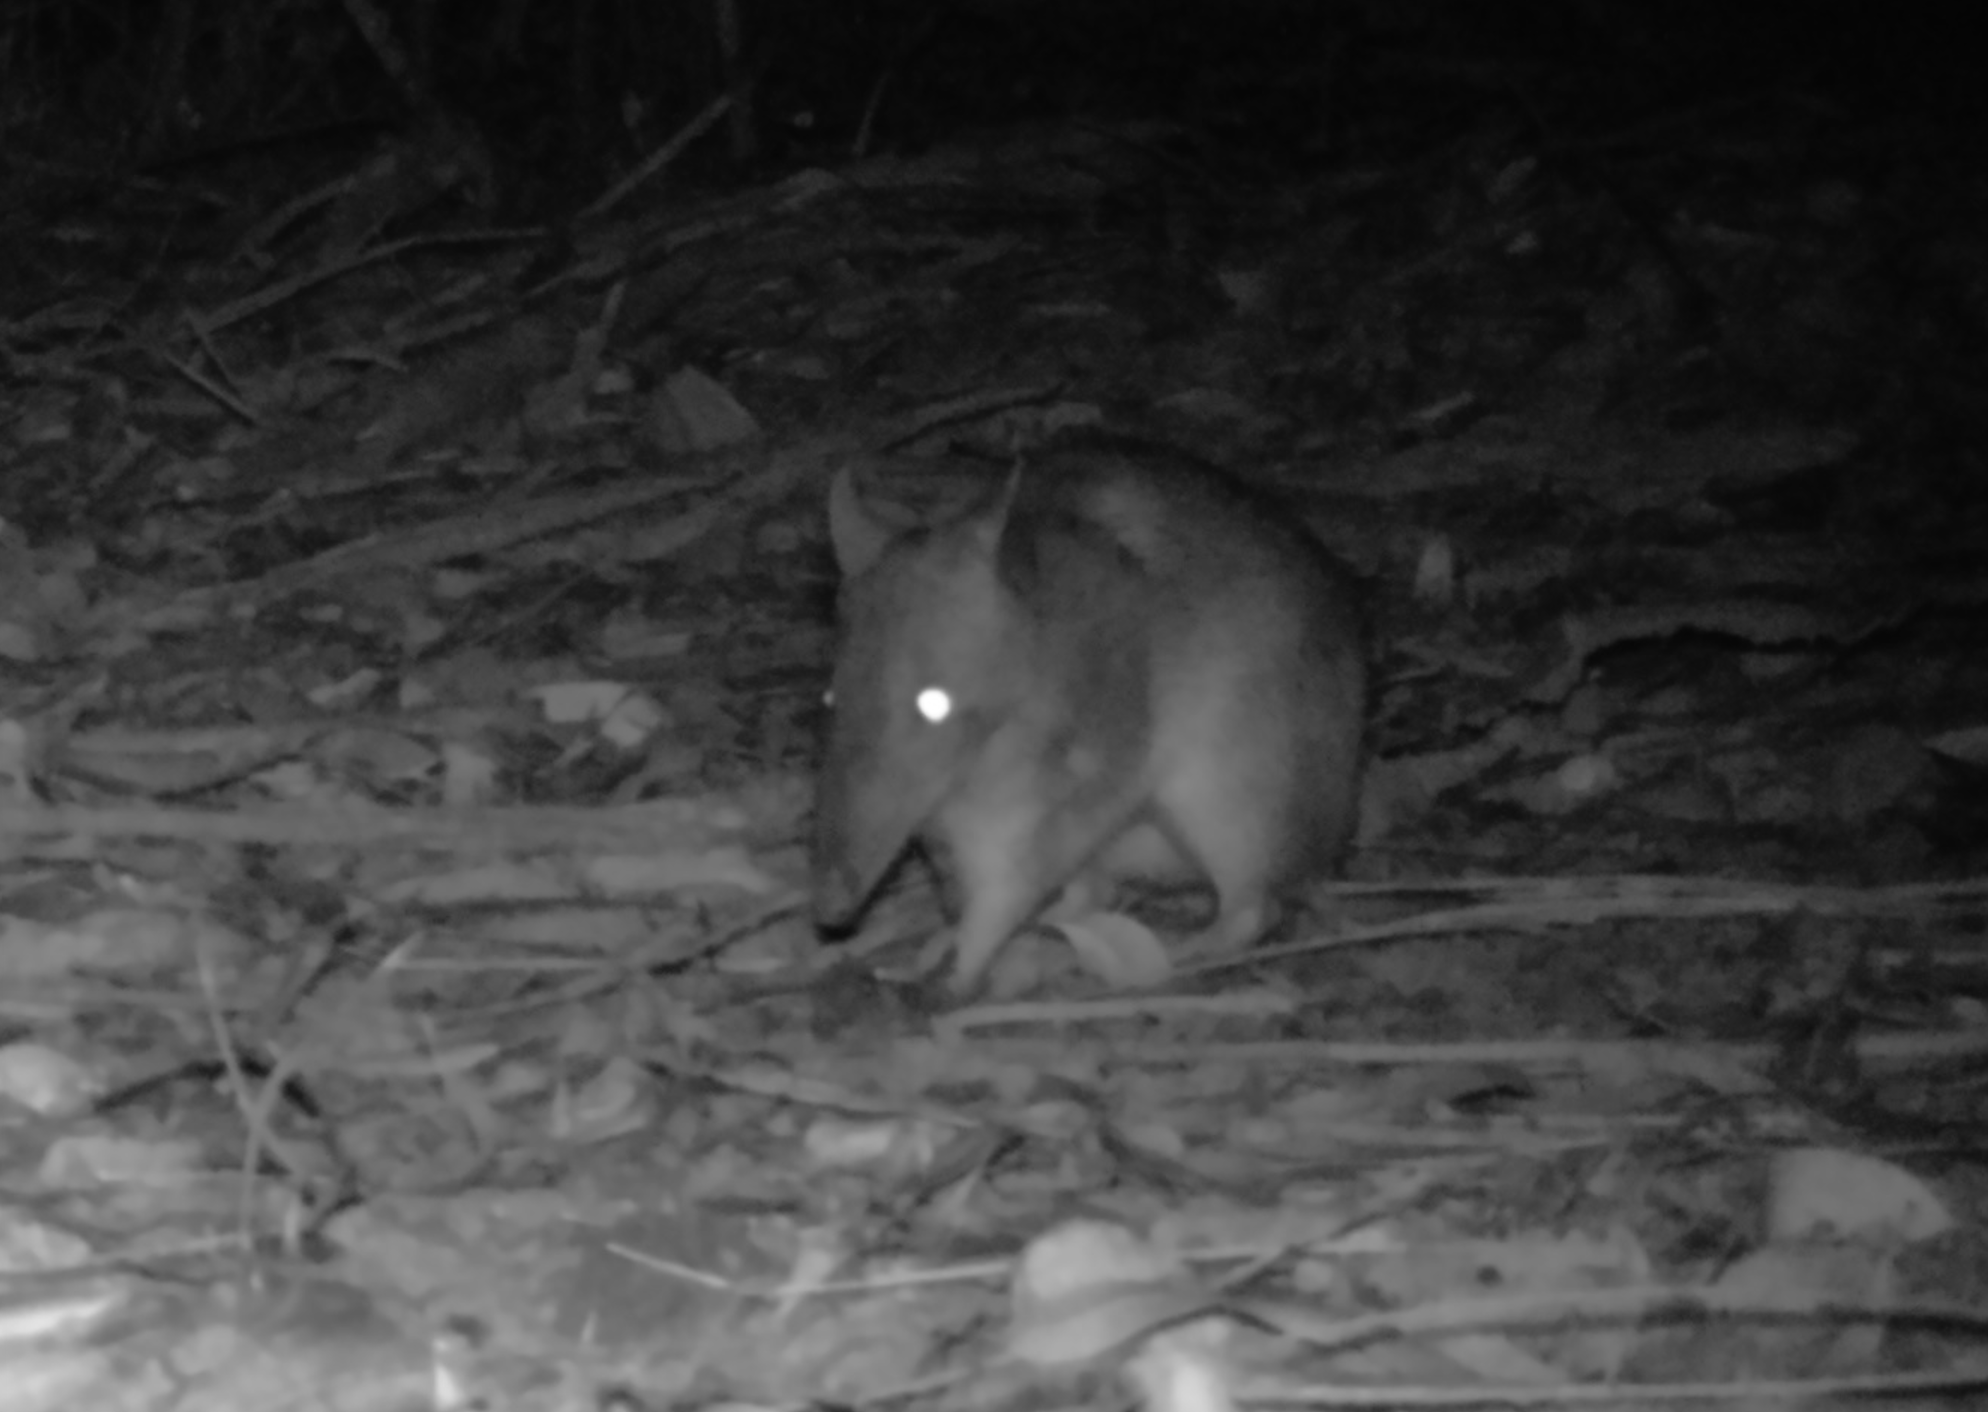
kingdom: Animalia
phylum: Chordata
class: Mammalia
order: Peramelemorphia
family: Peramelidae
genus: Perameles
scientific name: Perameles nasuta
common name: Long-nosed bandicoot
